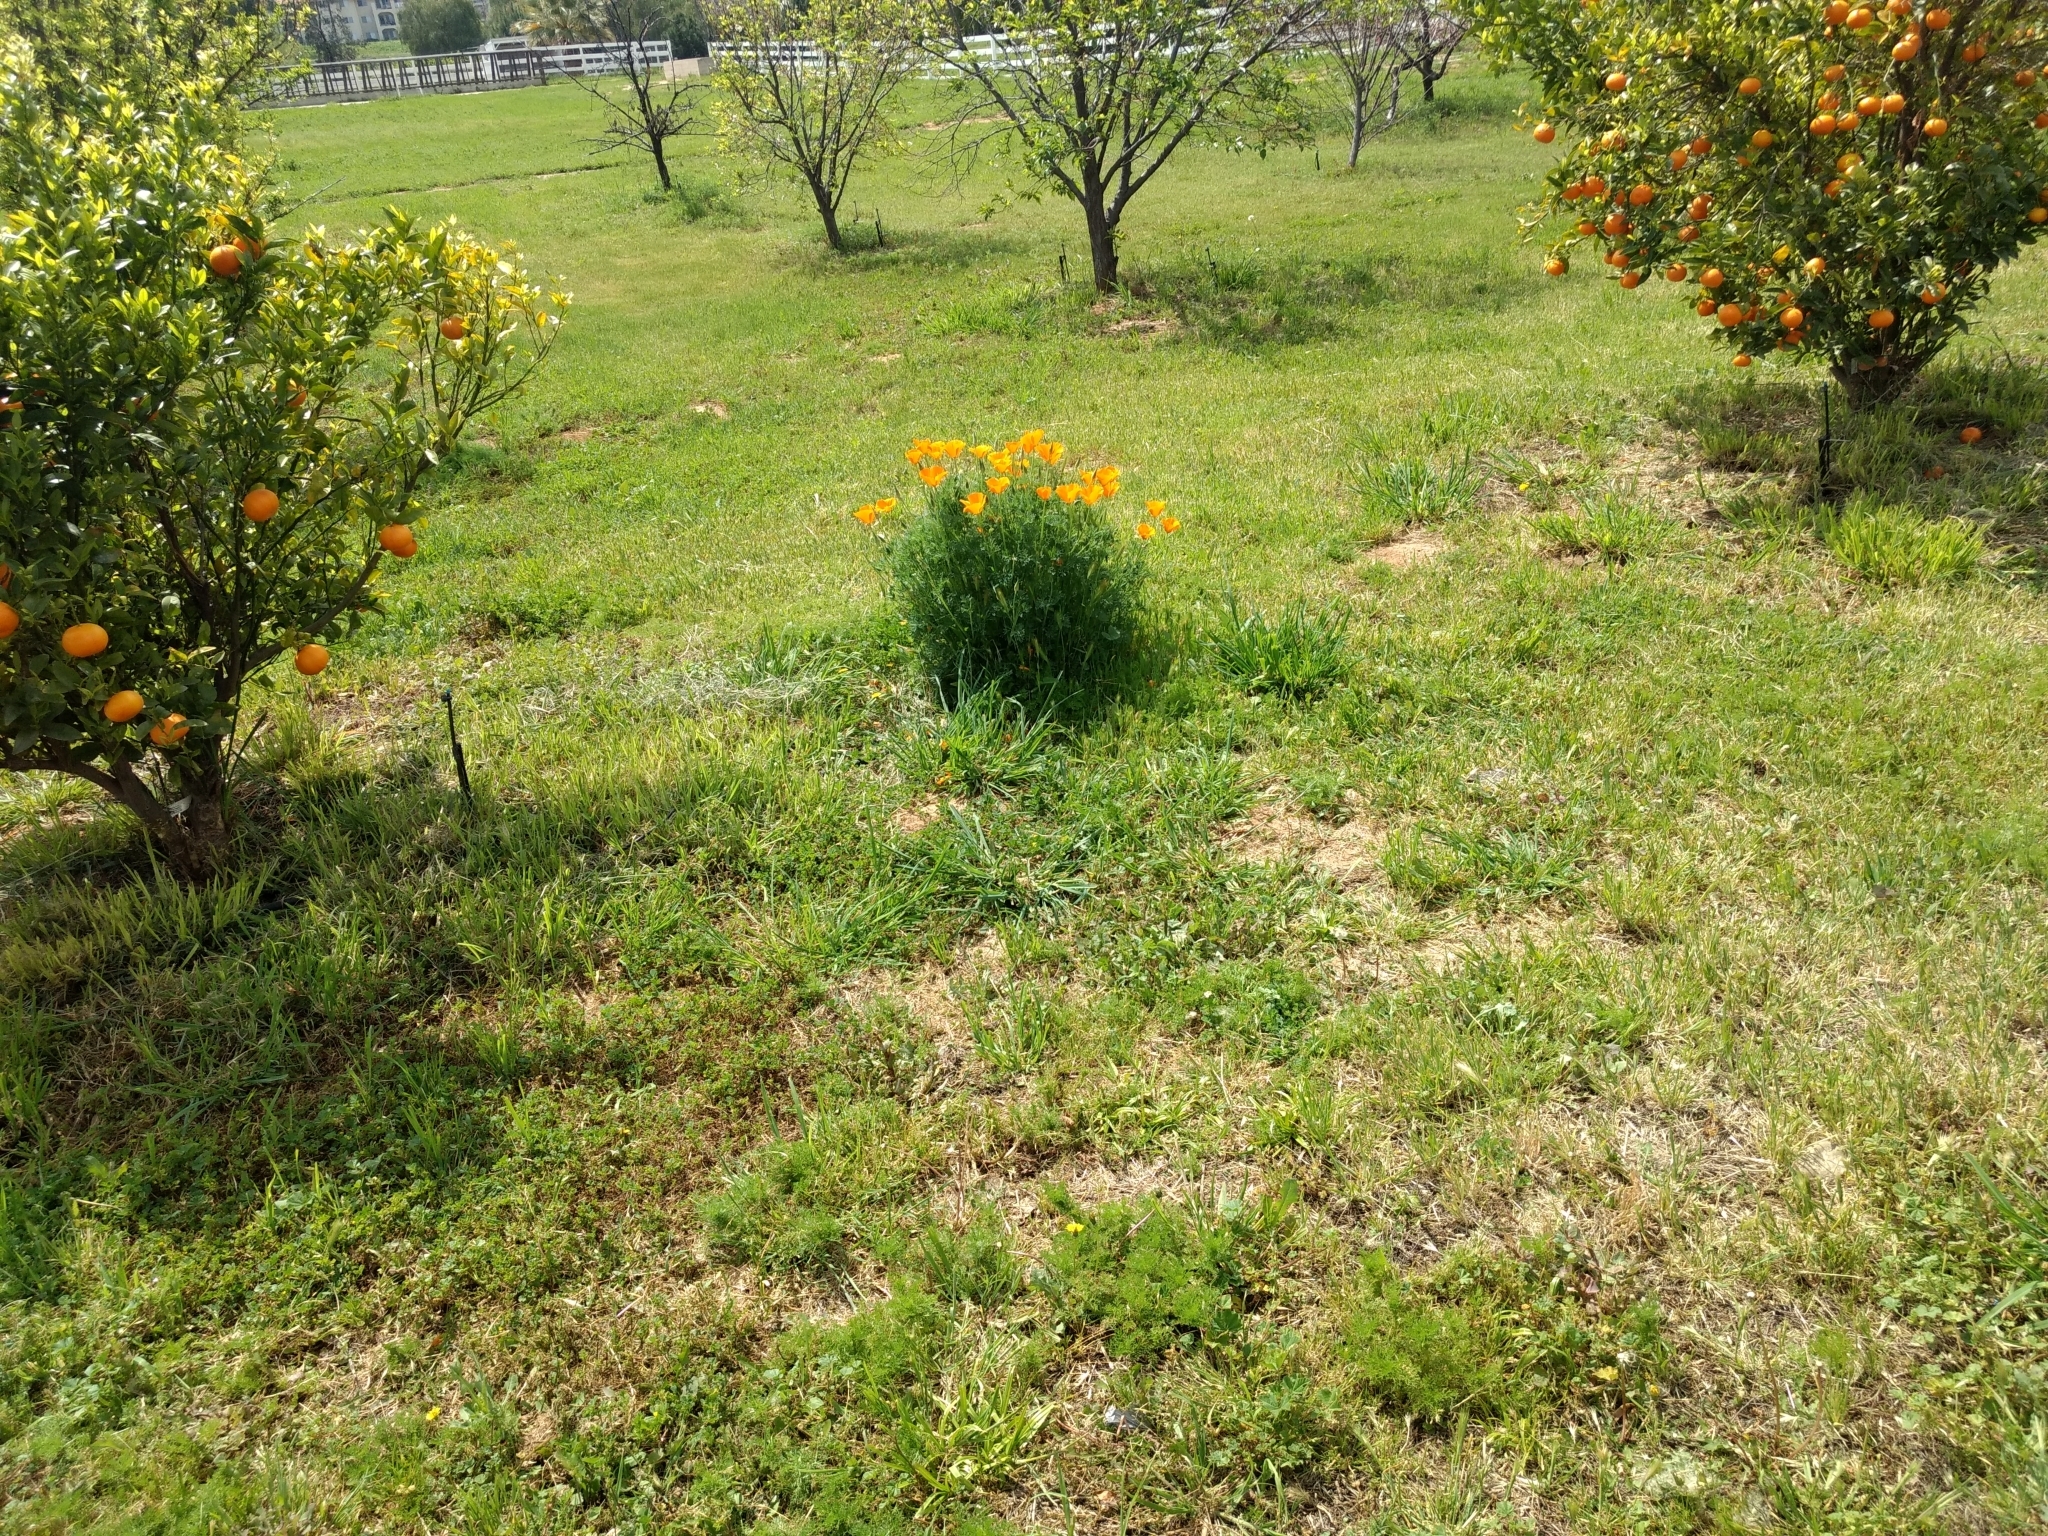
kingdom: Plantae
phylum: Tracheophyta
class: Magnoliopsida
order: Ranunculales
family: Papaveraceae
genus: Eschscholzia
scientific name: Eschscholzia californica
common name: California poppy
